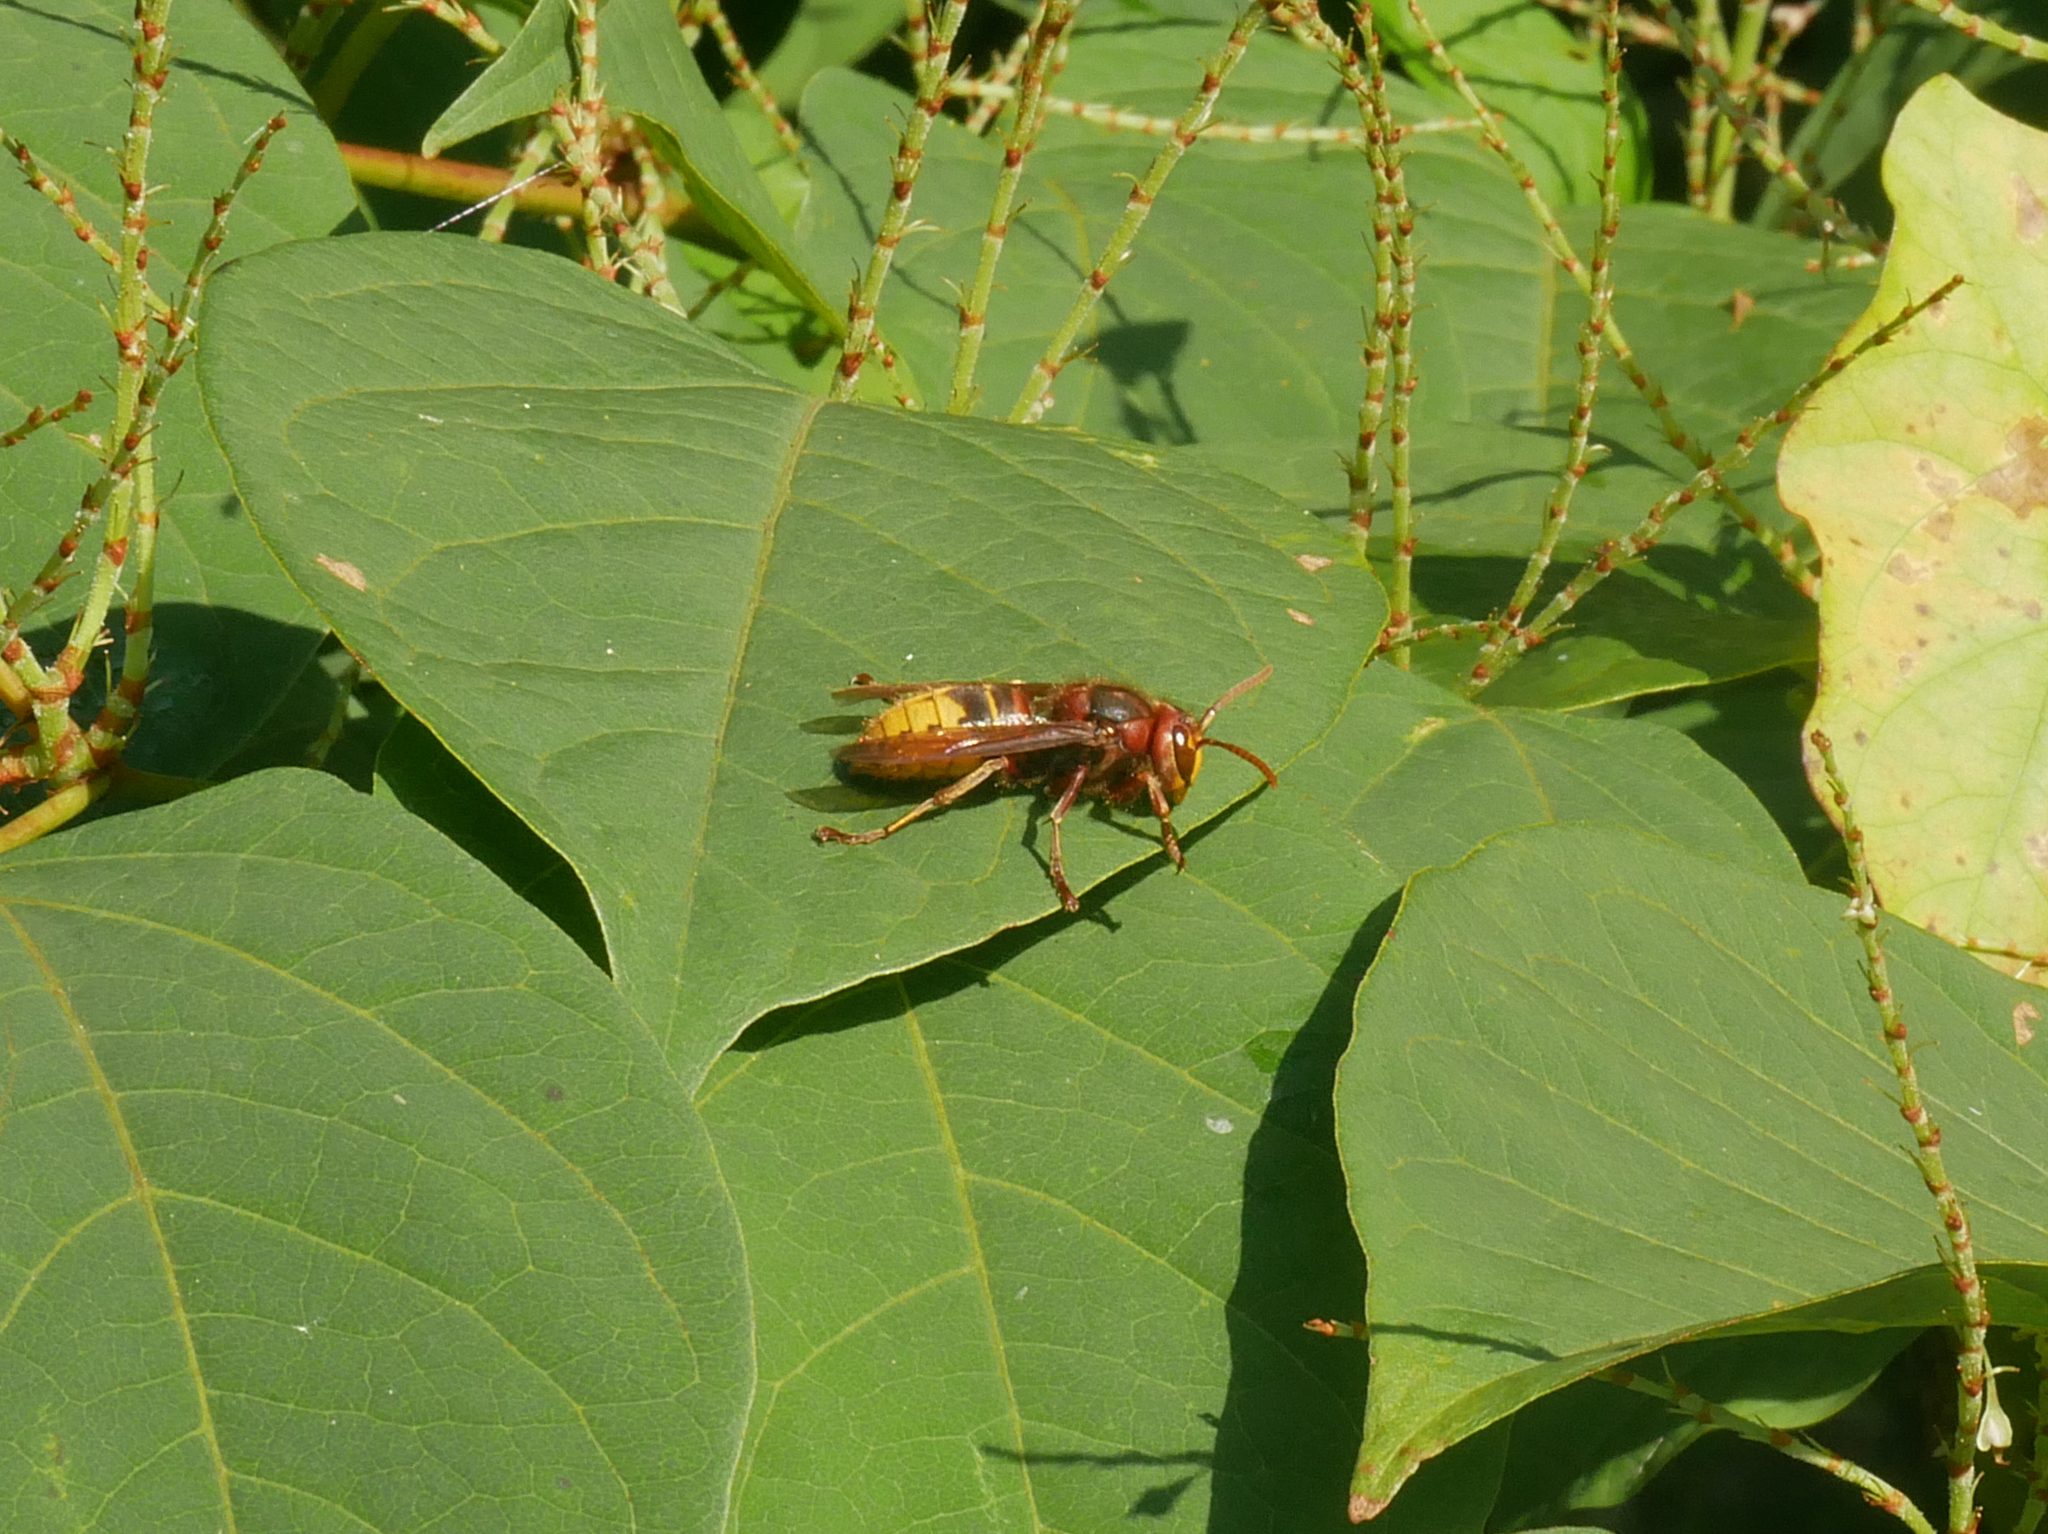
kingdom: Animalia
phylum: Arthropoda
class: Insecta
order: Hymenoptera
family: Vespidae
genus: Vespa
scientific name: Vespa crabro
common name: Hornet
